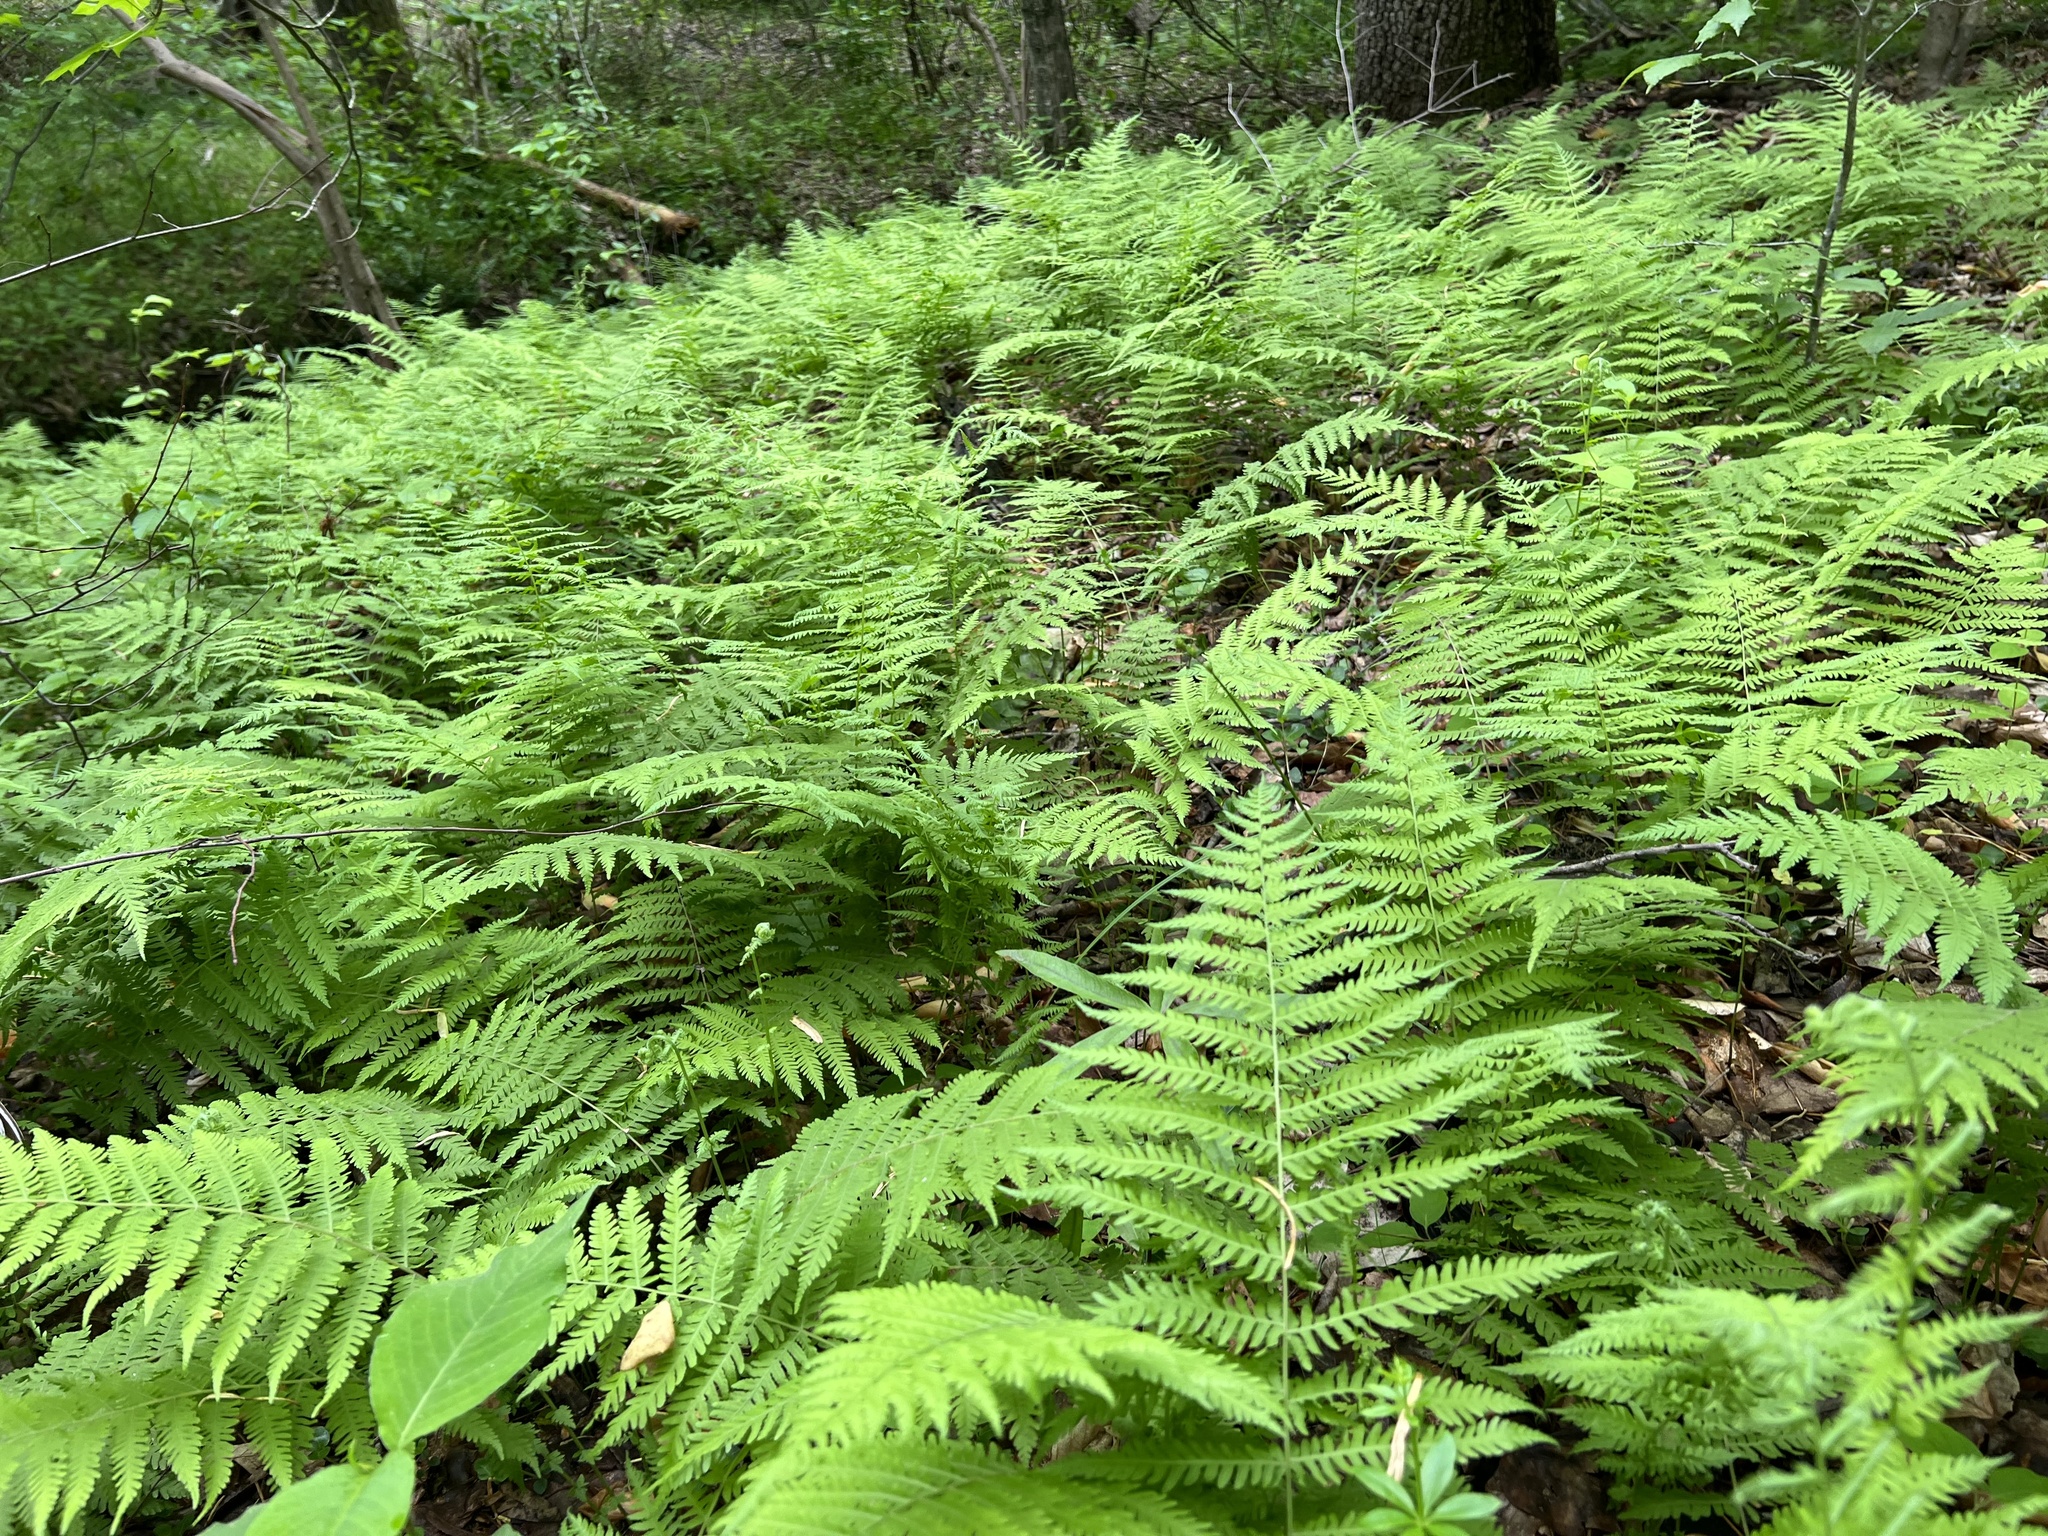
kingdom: Plantae
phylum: Tracheophyta
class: Polypodiopsida
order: Polypodiales
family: Thelypteridaceae
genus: Amauropelta
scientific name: Amauropelta noveboracensis
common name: New york fern
